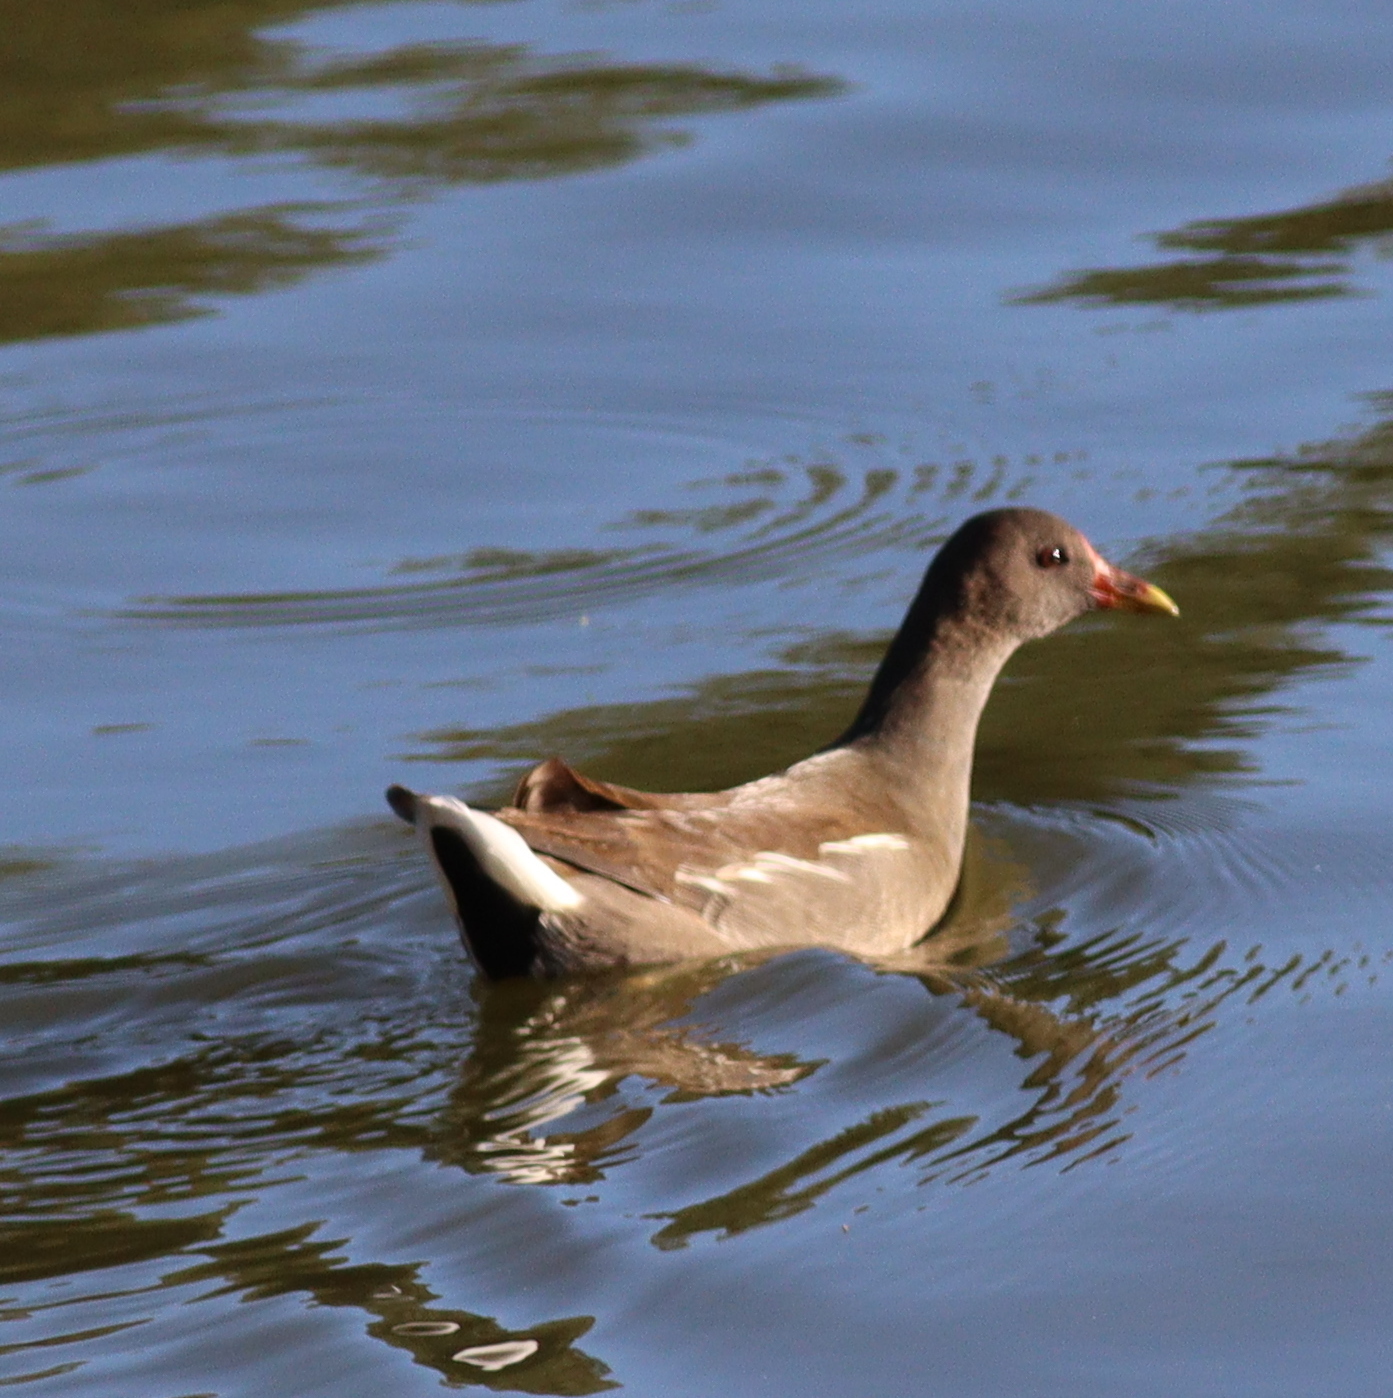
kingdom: Animalia
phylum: Chordata
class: Aves
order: Gruiformes
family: Rallidae
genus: Gallinula
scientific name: Gallinula chloropus
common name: Common moorhen
